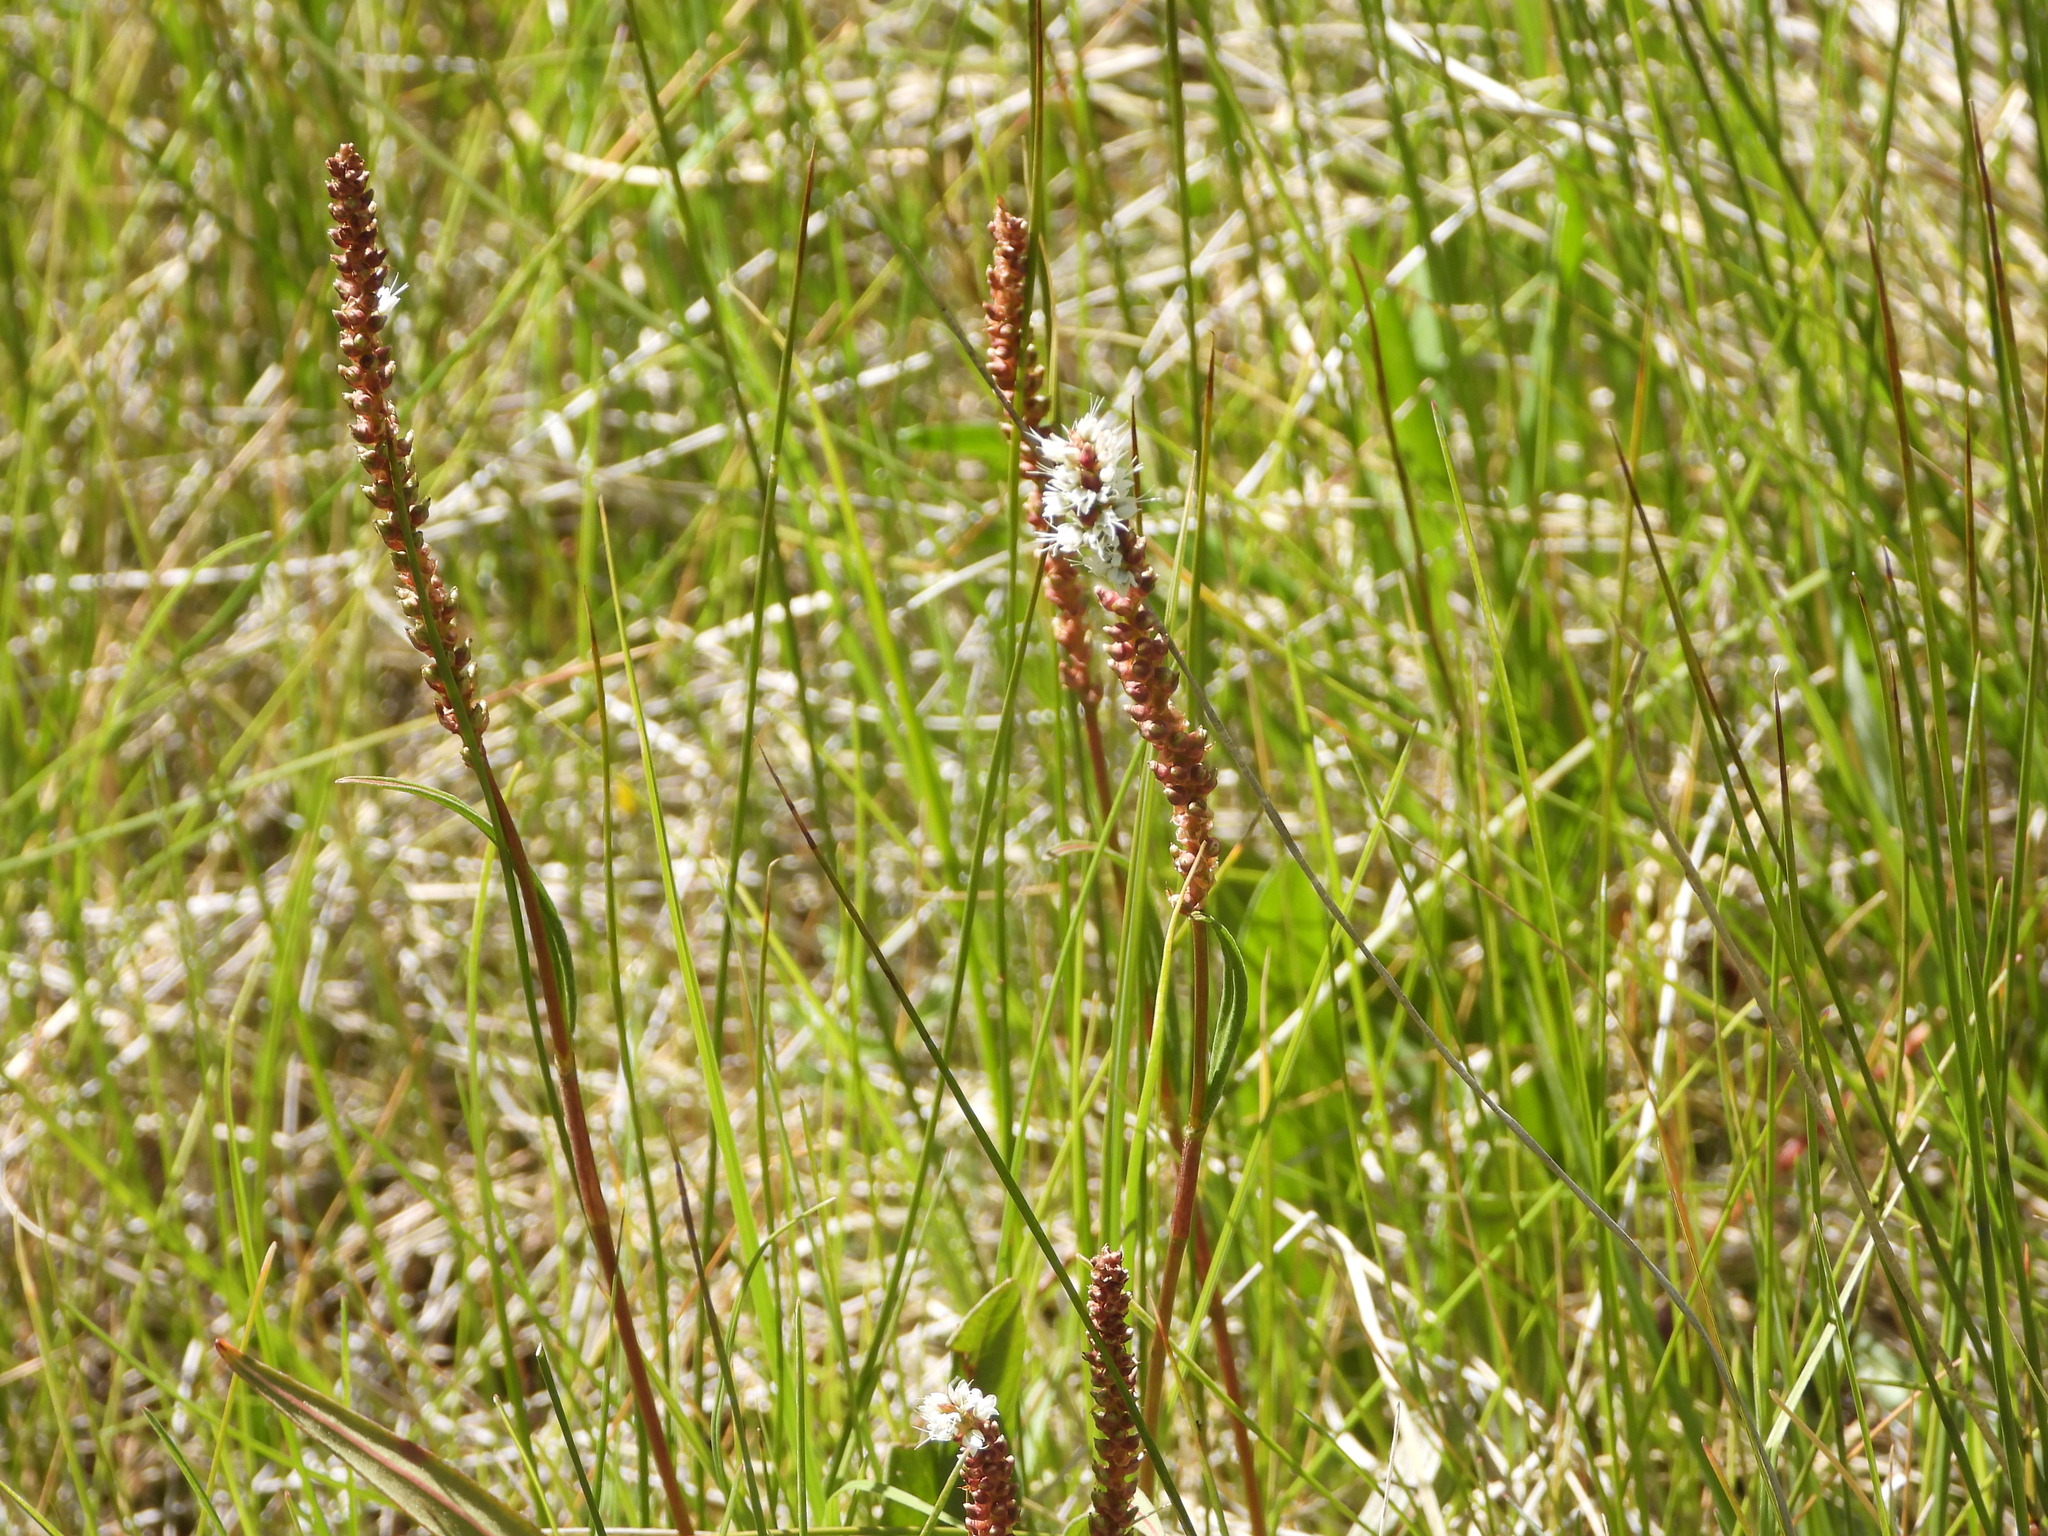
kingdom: Plantae
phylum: Tracheophyta
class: Magnoliopsida
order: Caryophyllales
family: Polygonaceae
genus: Bistorta
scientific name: Bistorta vivipara
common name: Alpine bistort
